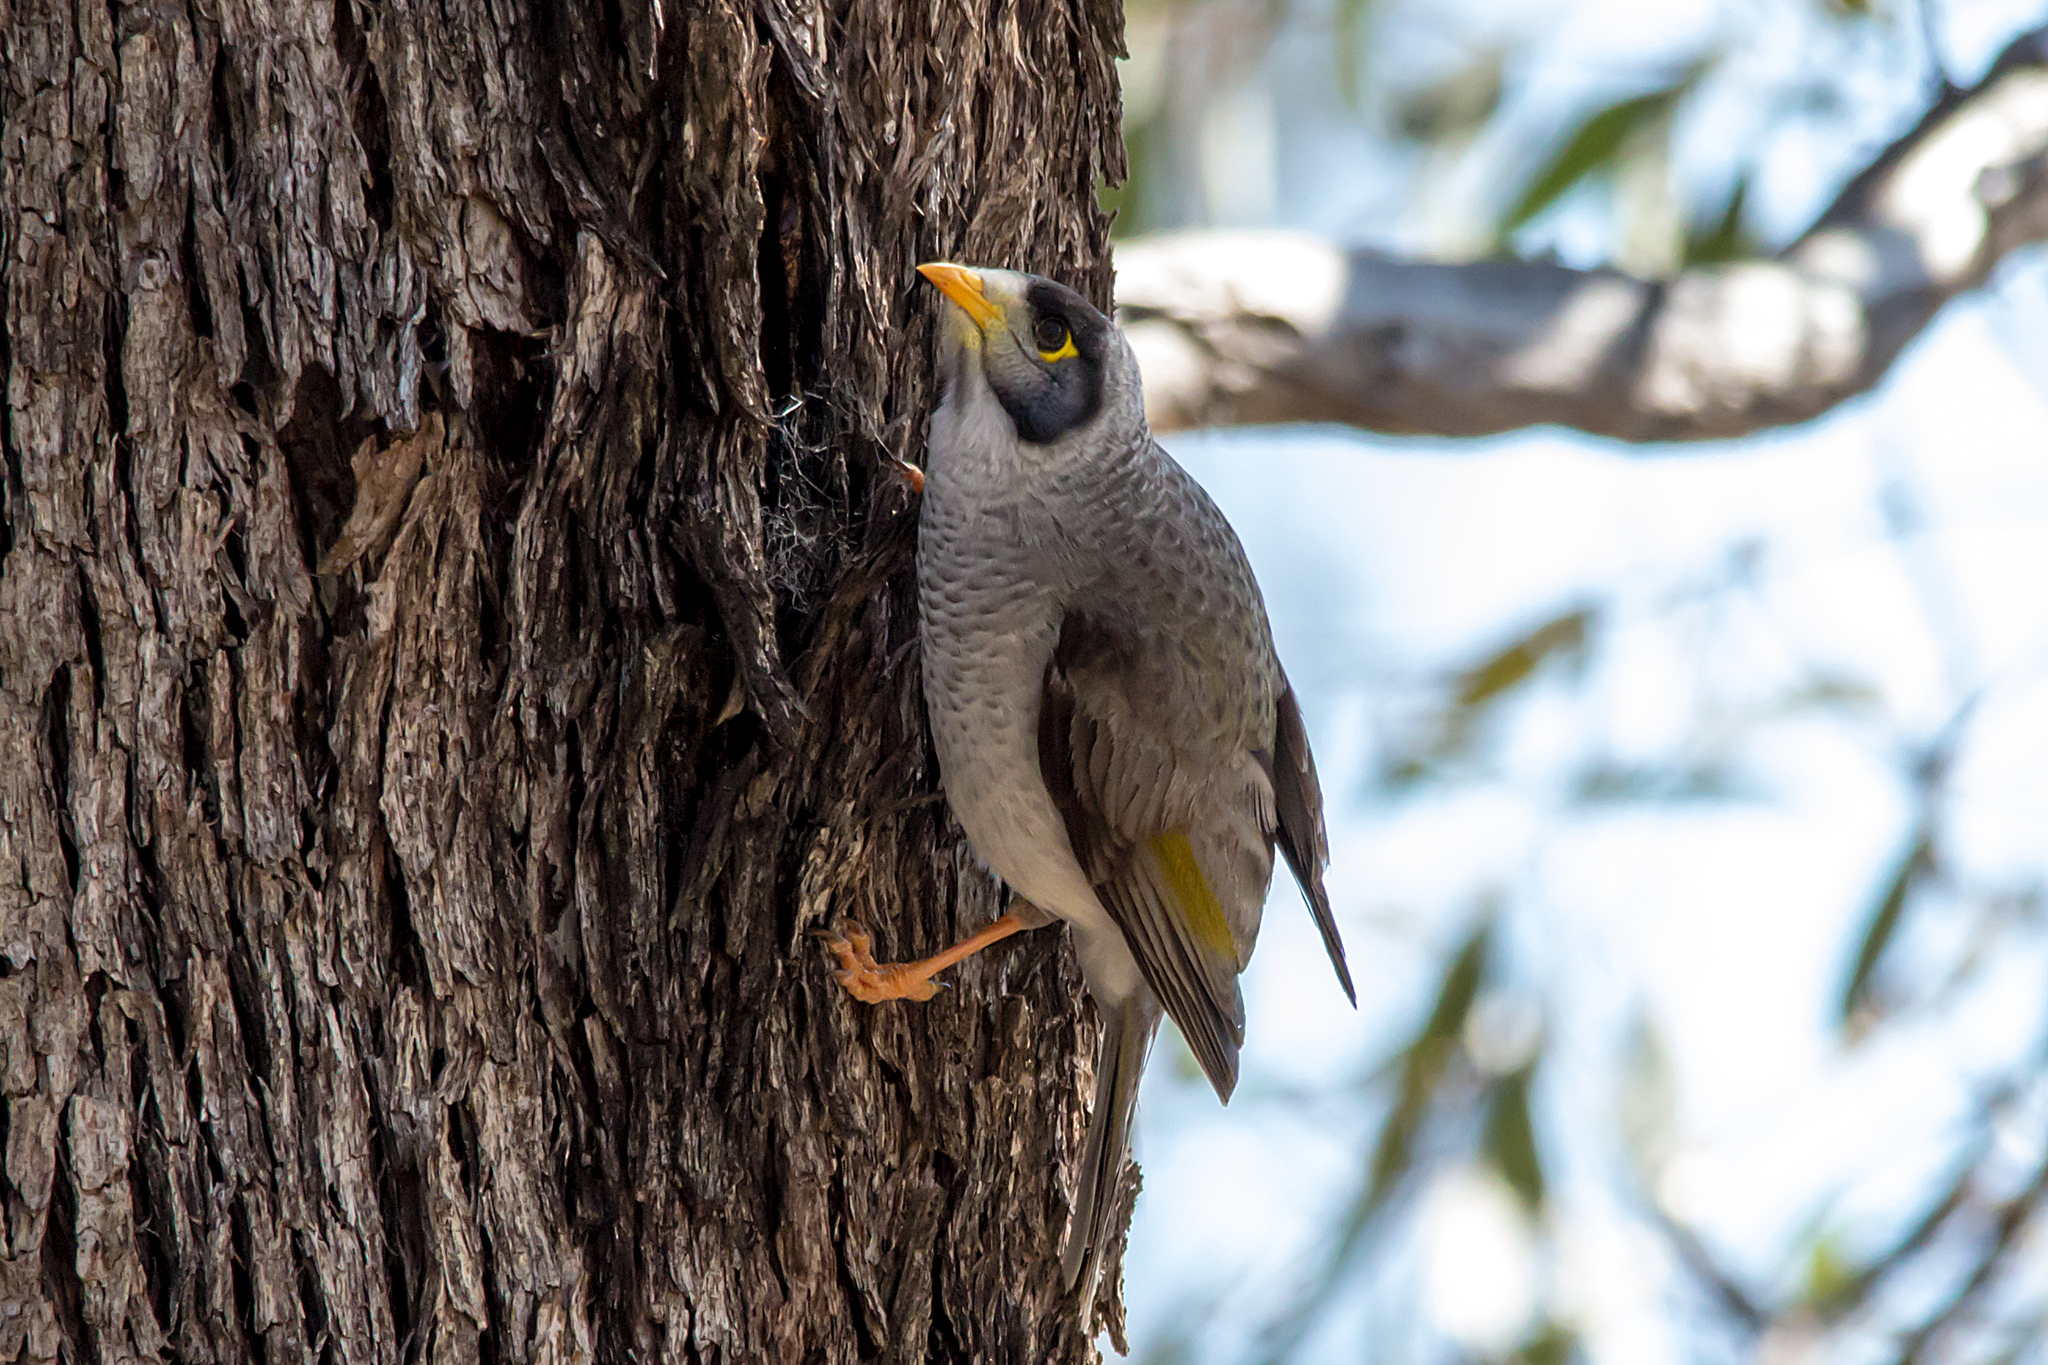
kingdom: Animalia
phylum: Chordata
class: Aves
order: Passeriformes
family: Meliphagidae
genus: Manorina
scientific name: Manorina melanocephala
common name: Noisy miner
